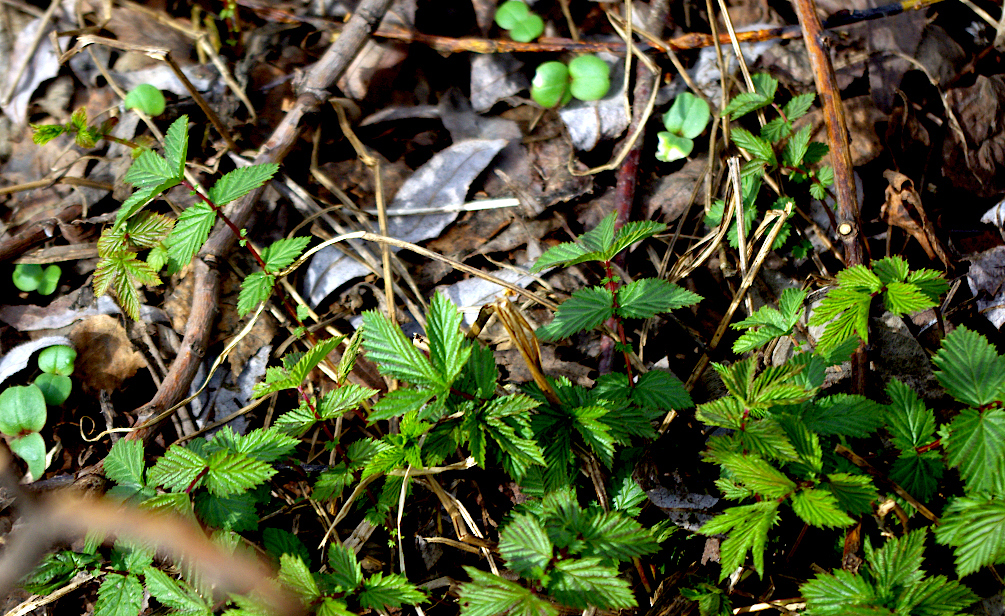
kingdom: Plantae
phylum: Tracheophyta
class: Magnoliopsida
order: Rosales
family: Rosaceae
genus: Filipendula
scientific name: Filipendula ulmaria
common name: Meadowsweet
